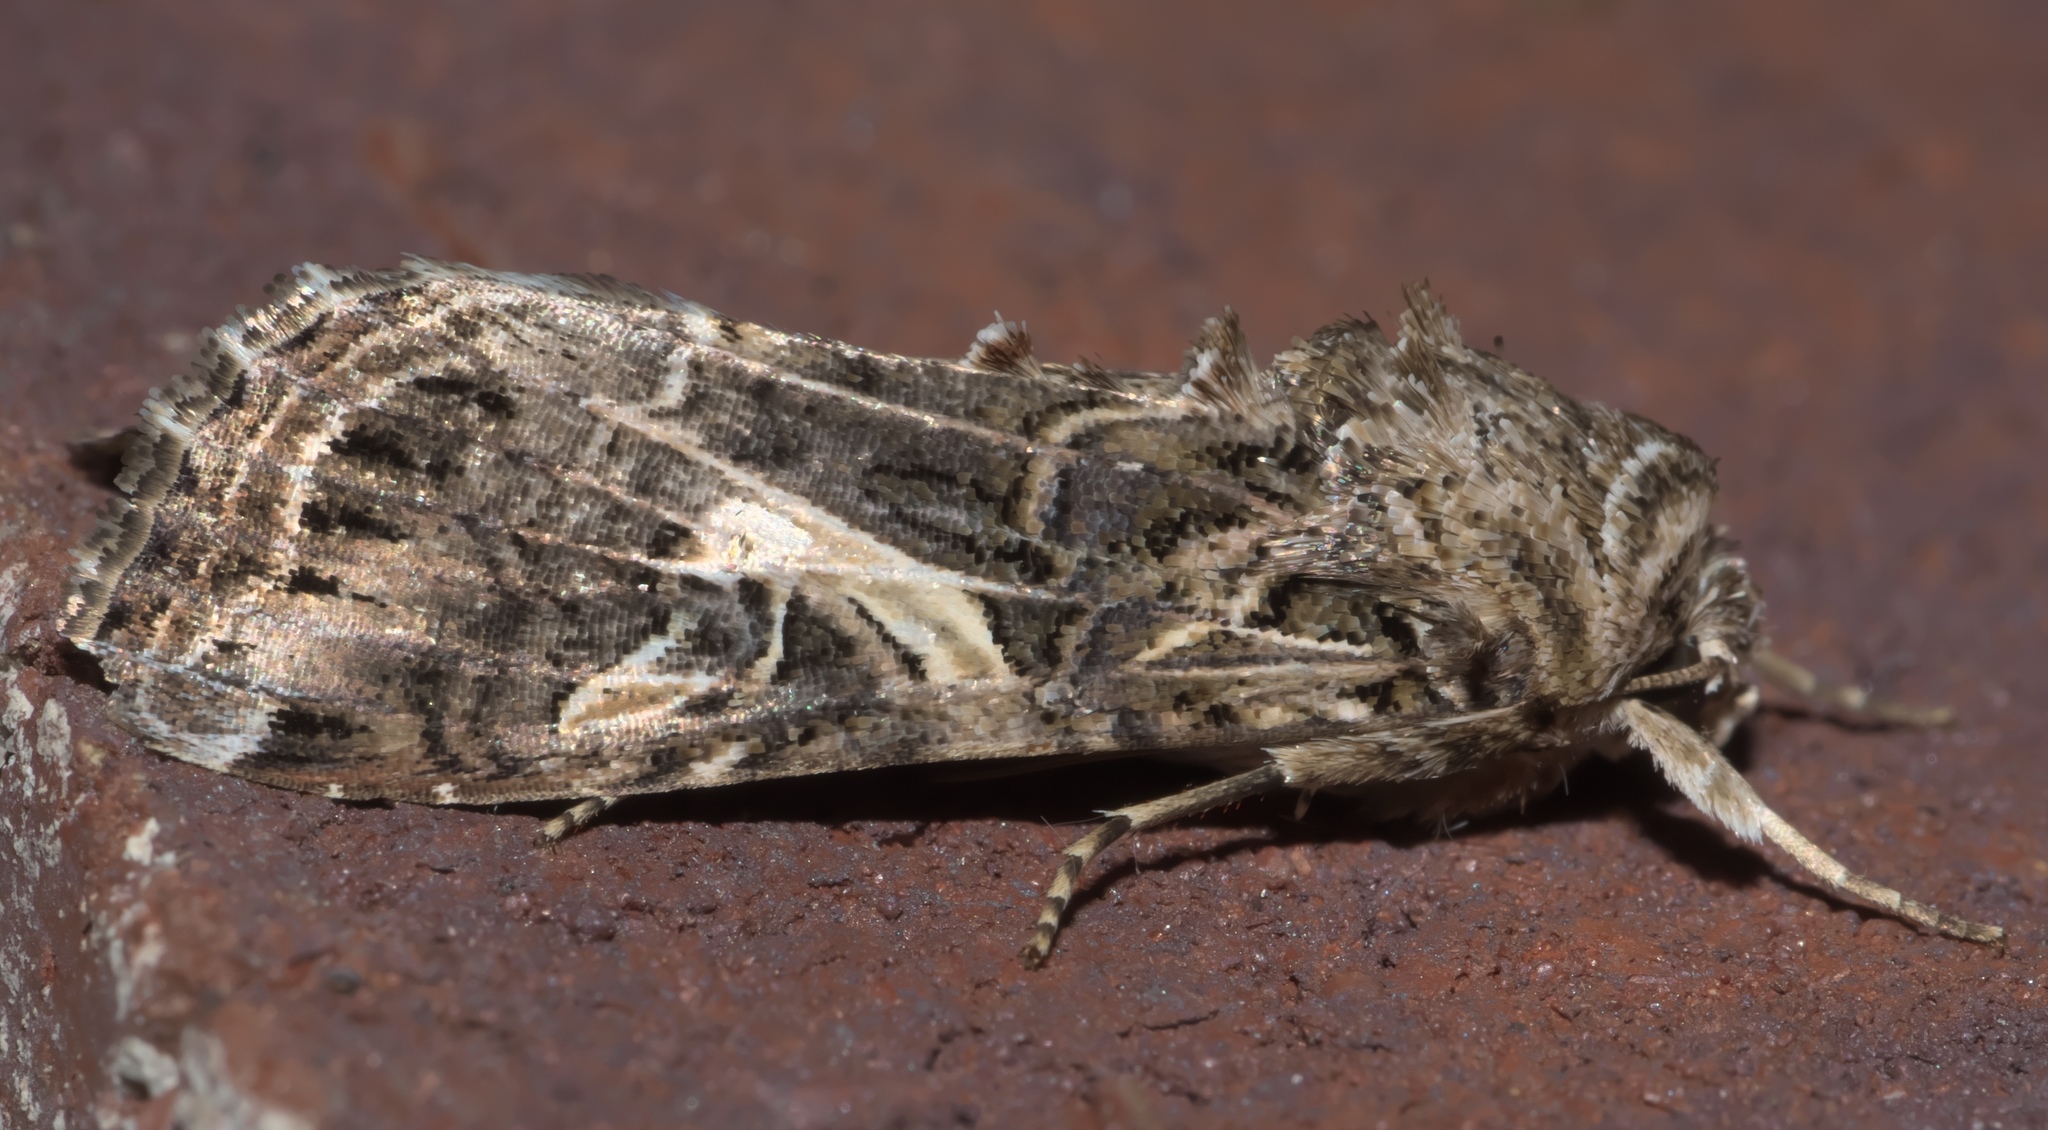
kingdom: Animalia
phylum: Arthropoda
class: Insecta
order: Lepidoptera
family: Noctuidae
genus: Spodoptera
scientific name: Spodoptera ornithogalli
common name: Yellow-striped armyworm
